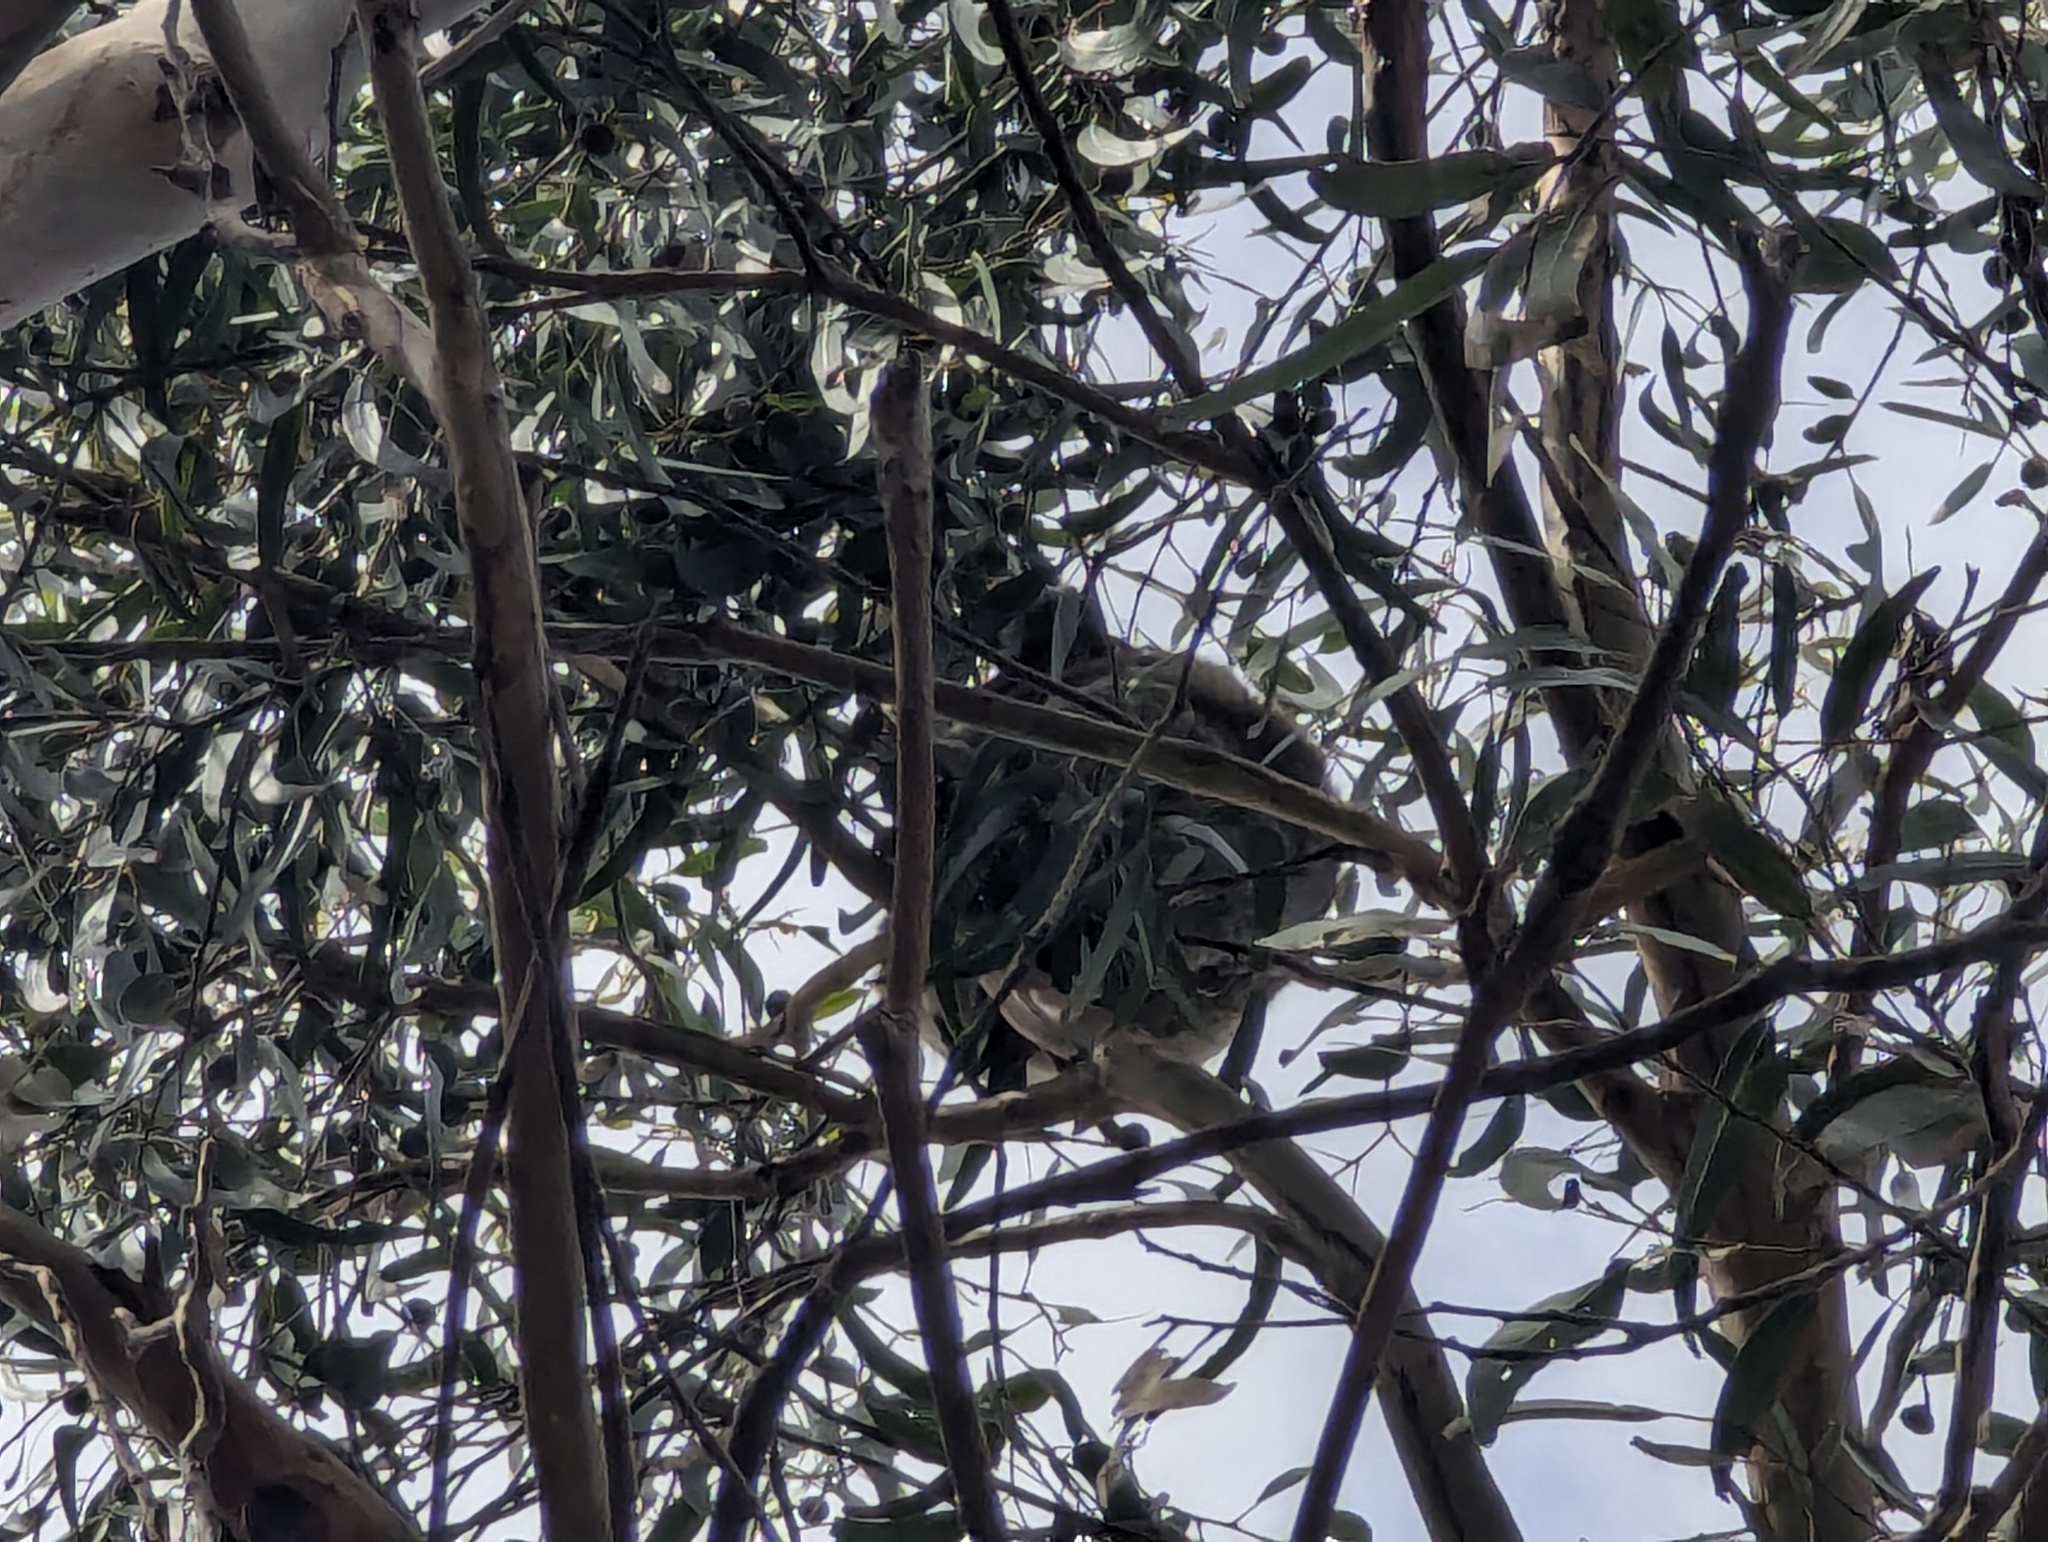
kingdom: Animalia
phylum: Chordata
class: Mammalia
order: Diprotodontia
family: Phascolarctidae
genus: Phascolarctos
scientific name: Phascolarctos cinereus
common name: Koala
